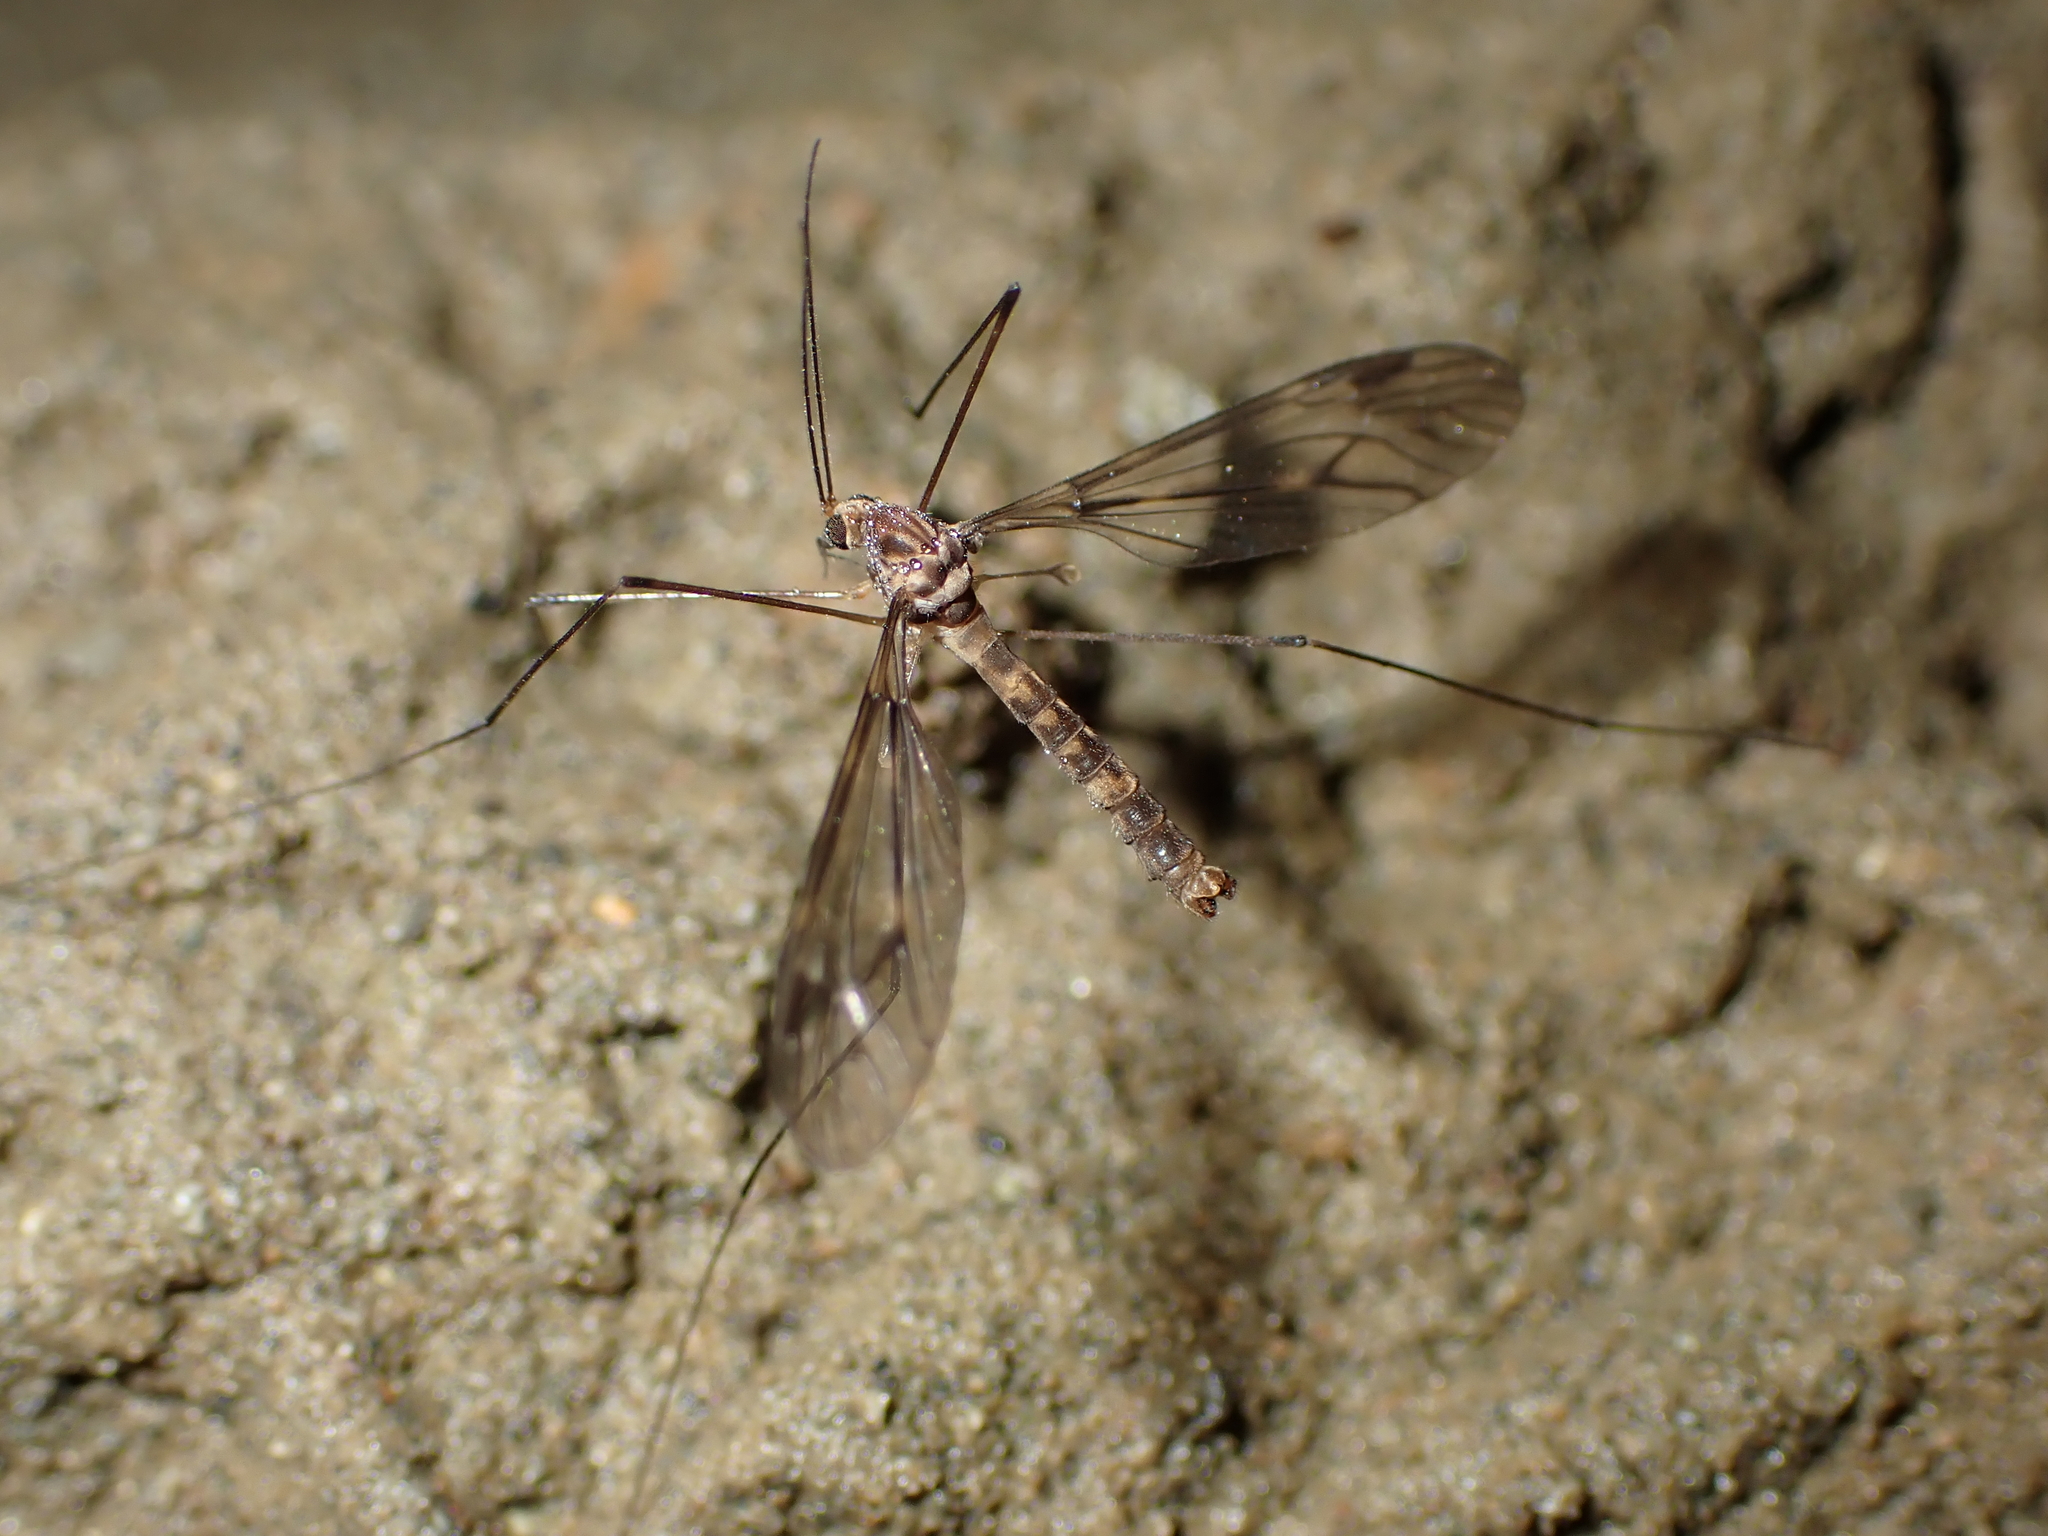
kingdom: Animalia
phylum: Arthropoda
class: Insecta
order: Diptera
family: Tipulidae
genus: Leptotarsus
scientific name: Leptotarsus cubitalis
